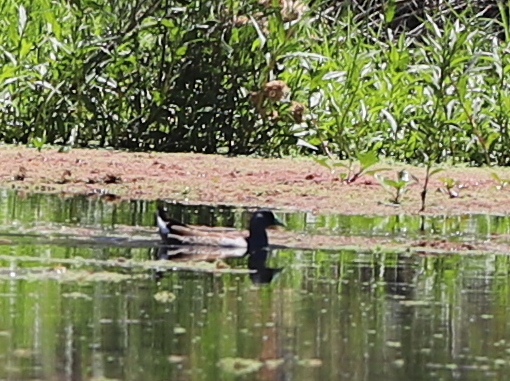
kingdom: Animalia
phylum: Chordata
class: Aves
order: Gruiformes
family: Rallidae
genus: Gallinula
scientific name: Gallinula melanops
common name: Spot-flanked gallinule
